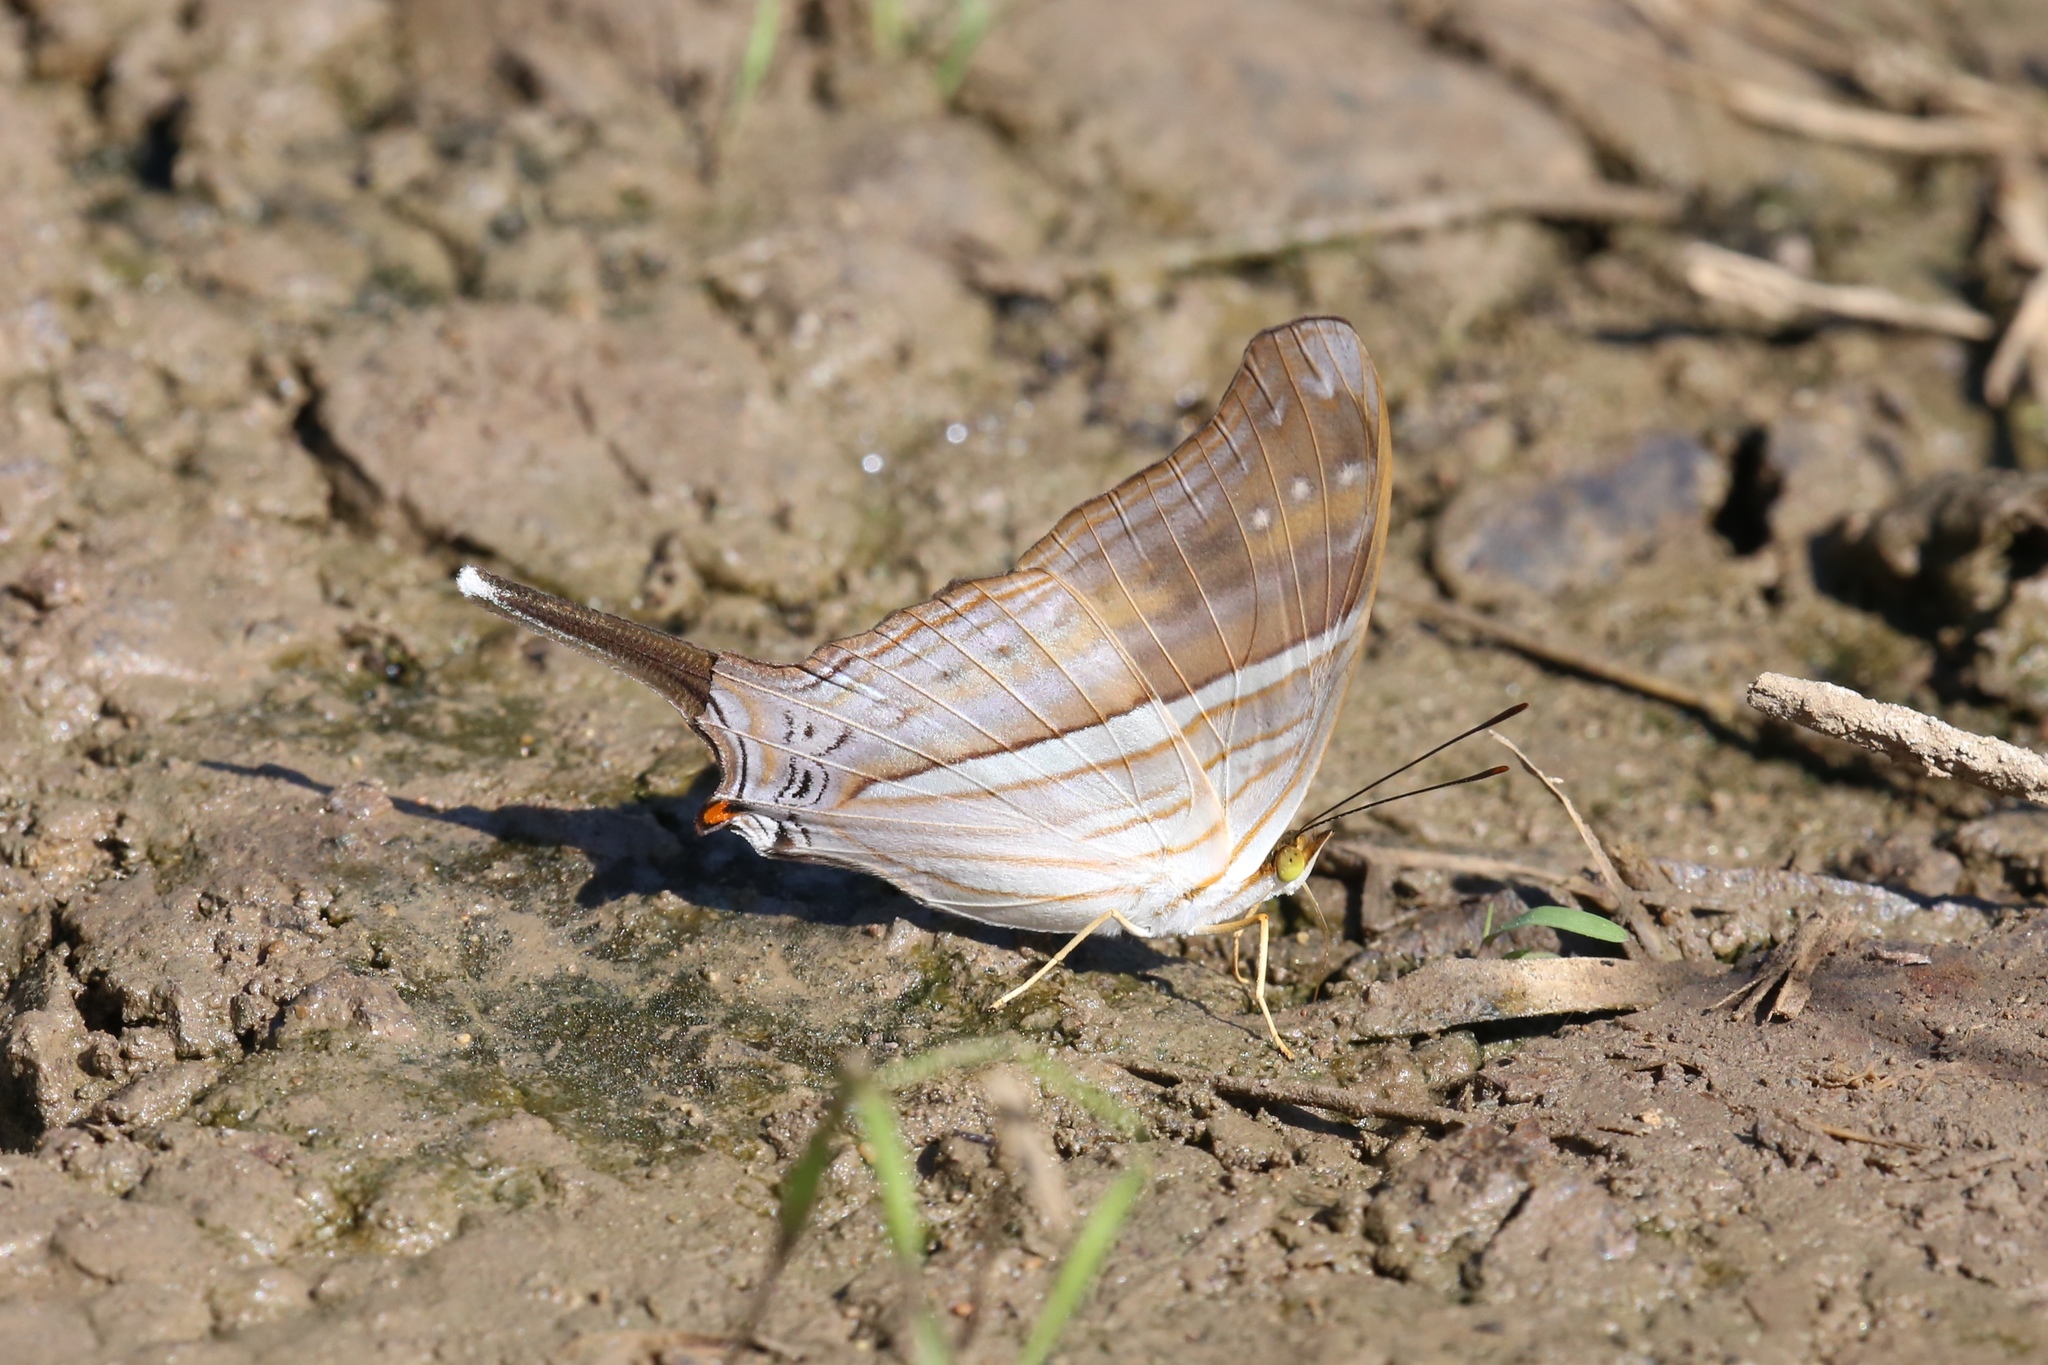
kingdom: Animalia
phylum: Arthropoda
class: Insecta
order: Lepidoptera
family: Nymphalidae
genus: Marpesia
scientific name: Marpesia chiron
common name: Many-banded daggerwing
